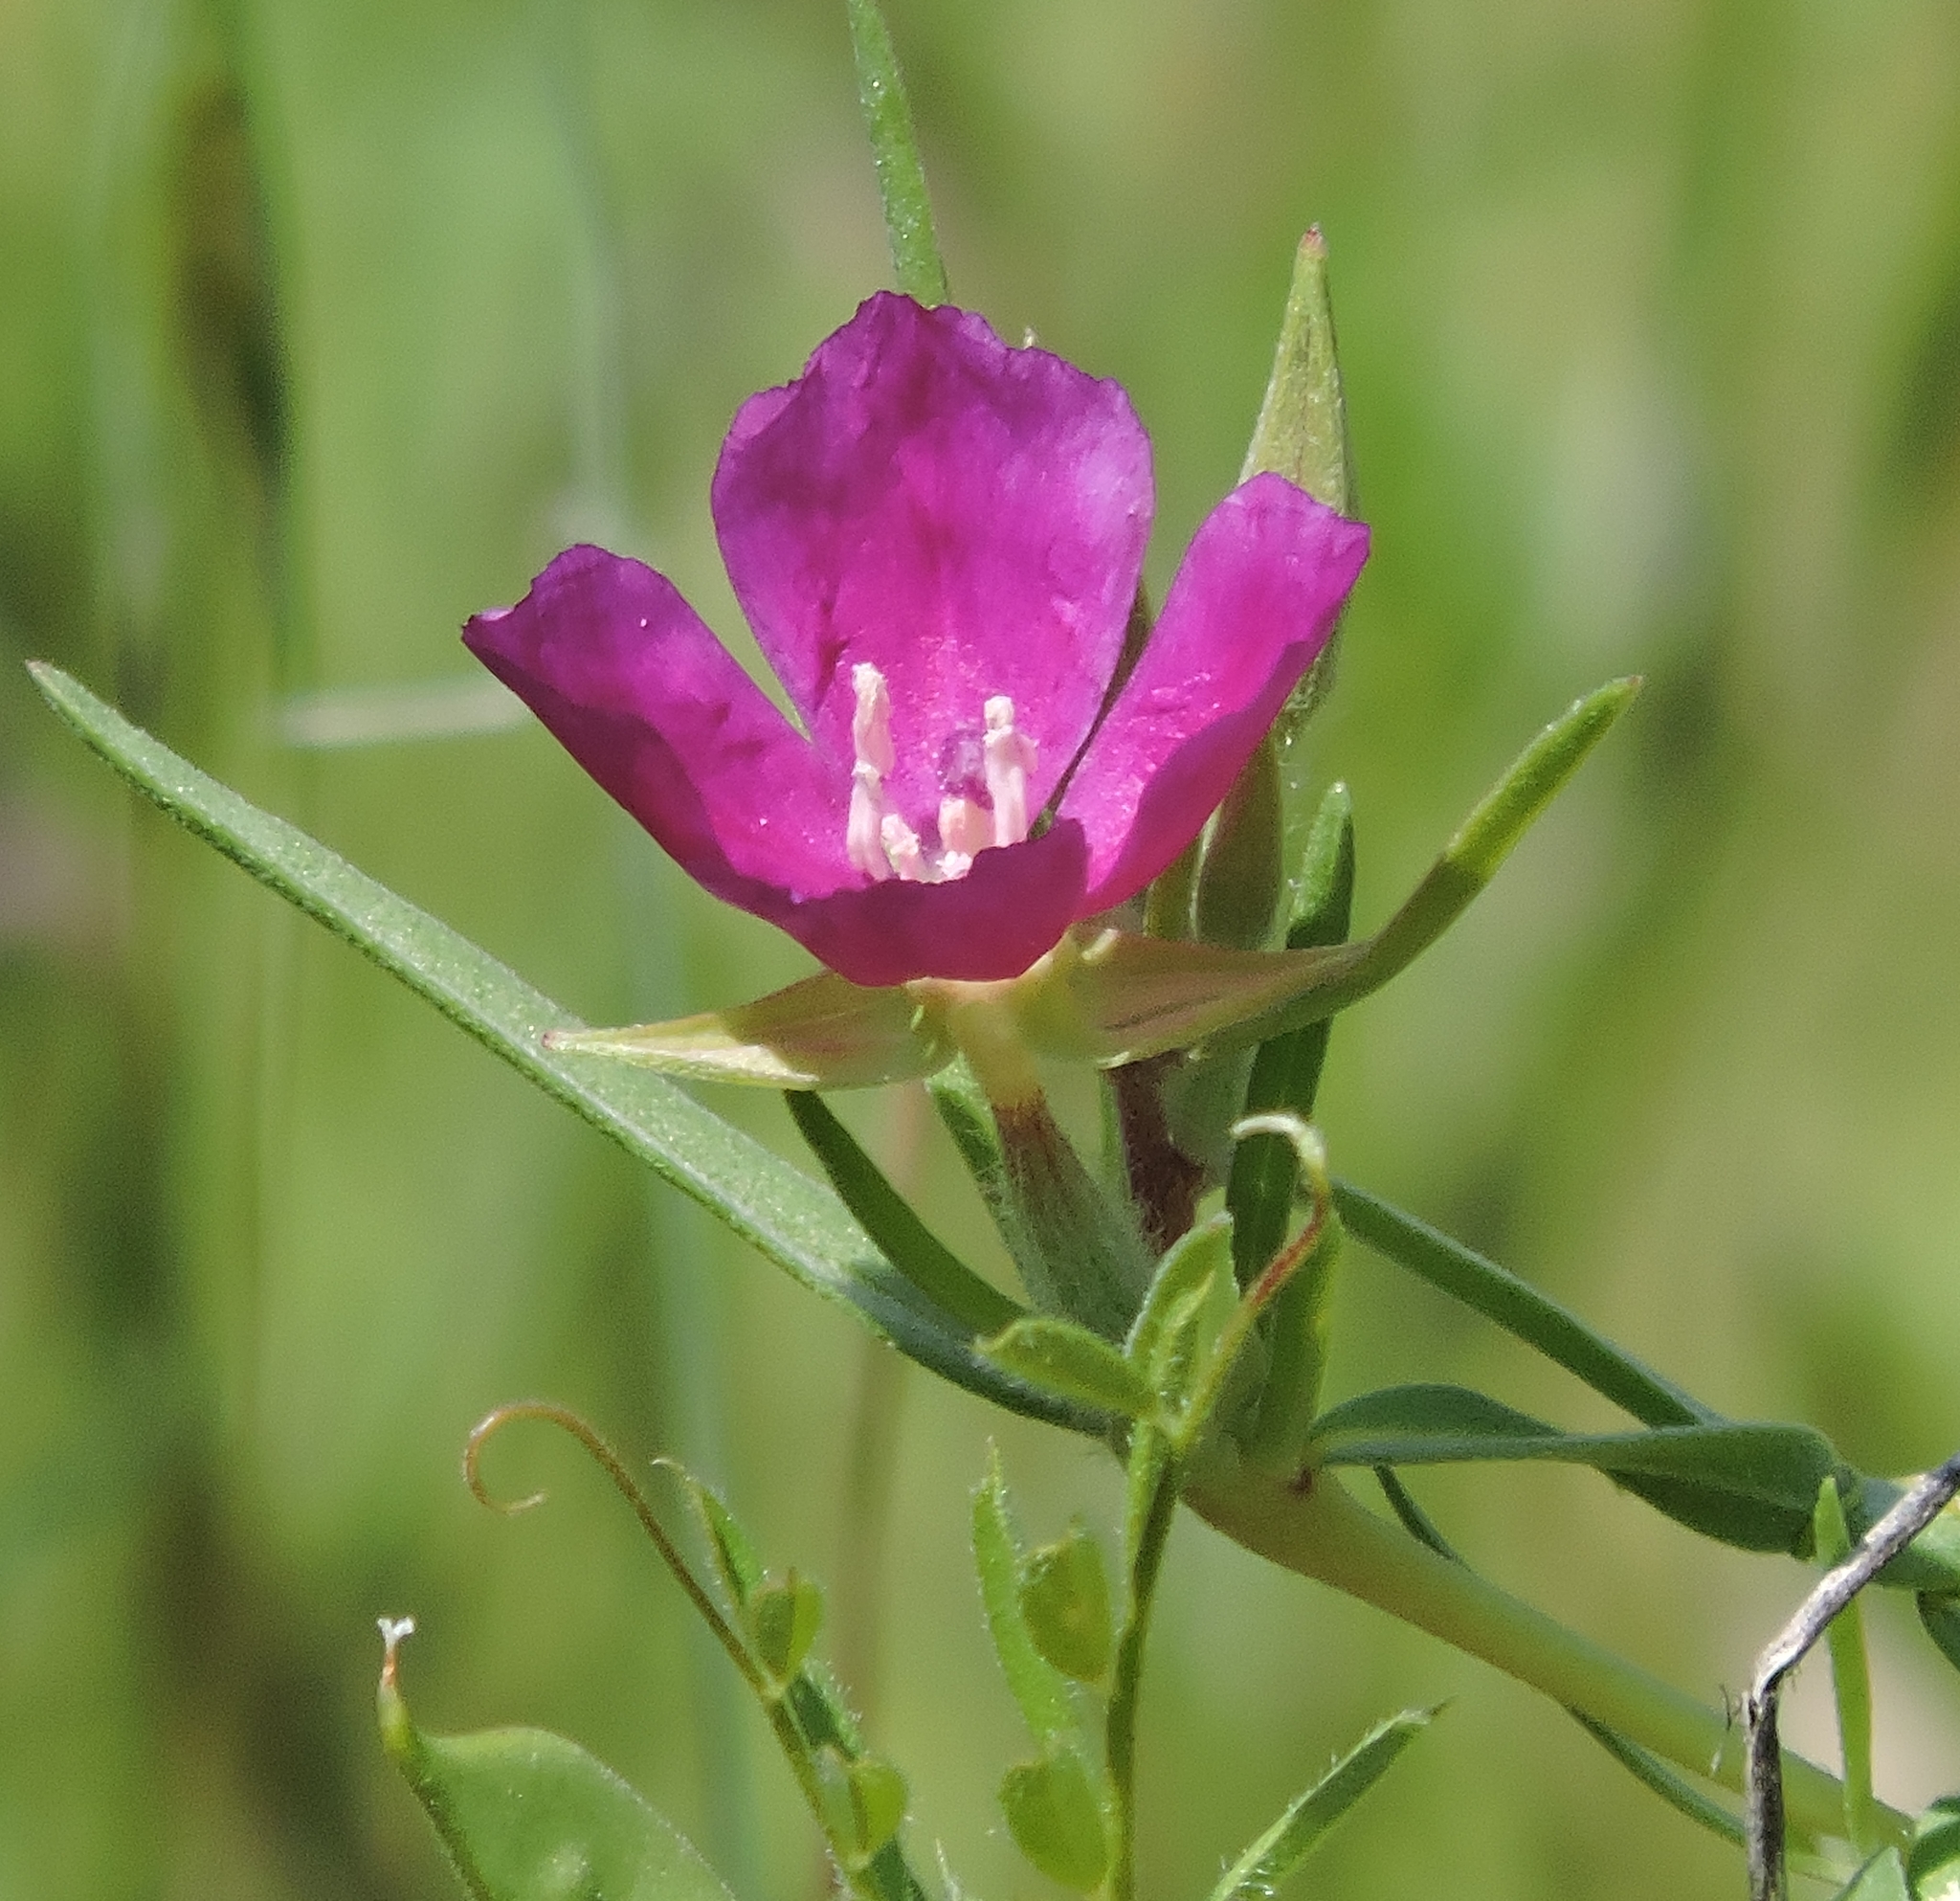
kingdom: Plantae
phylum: Tracheophyta
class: Magnoliopsida
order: Myrtales
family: Onagraceae
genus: Clarkia
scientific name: Clarkia purpurea
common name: Purple clarkia
